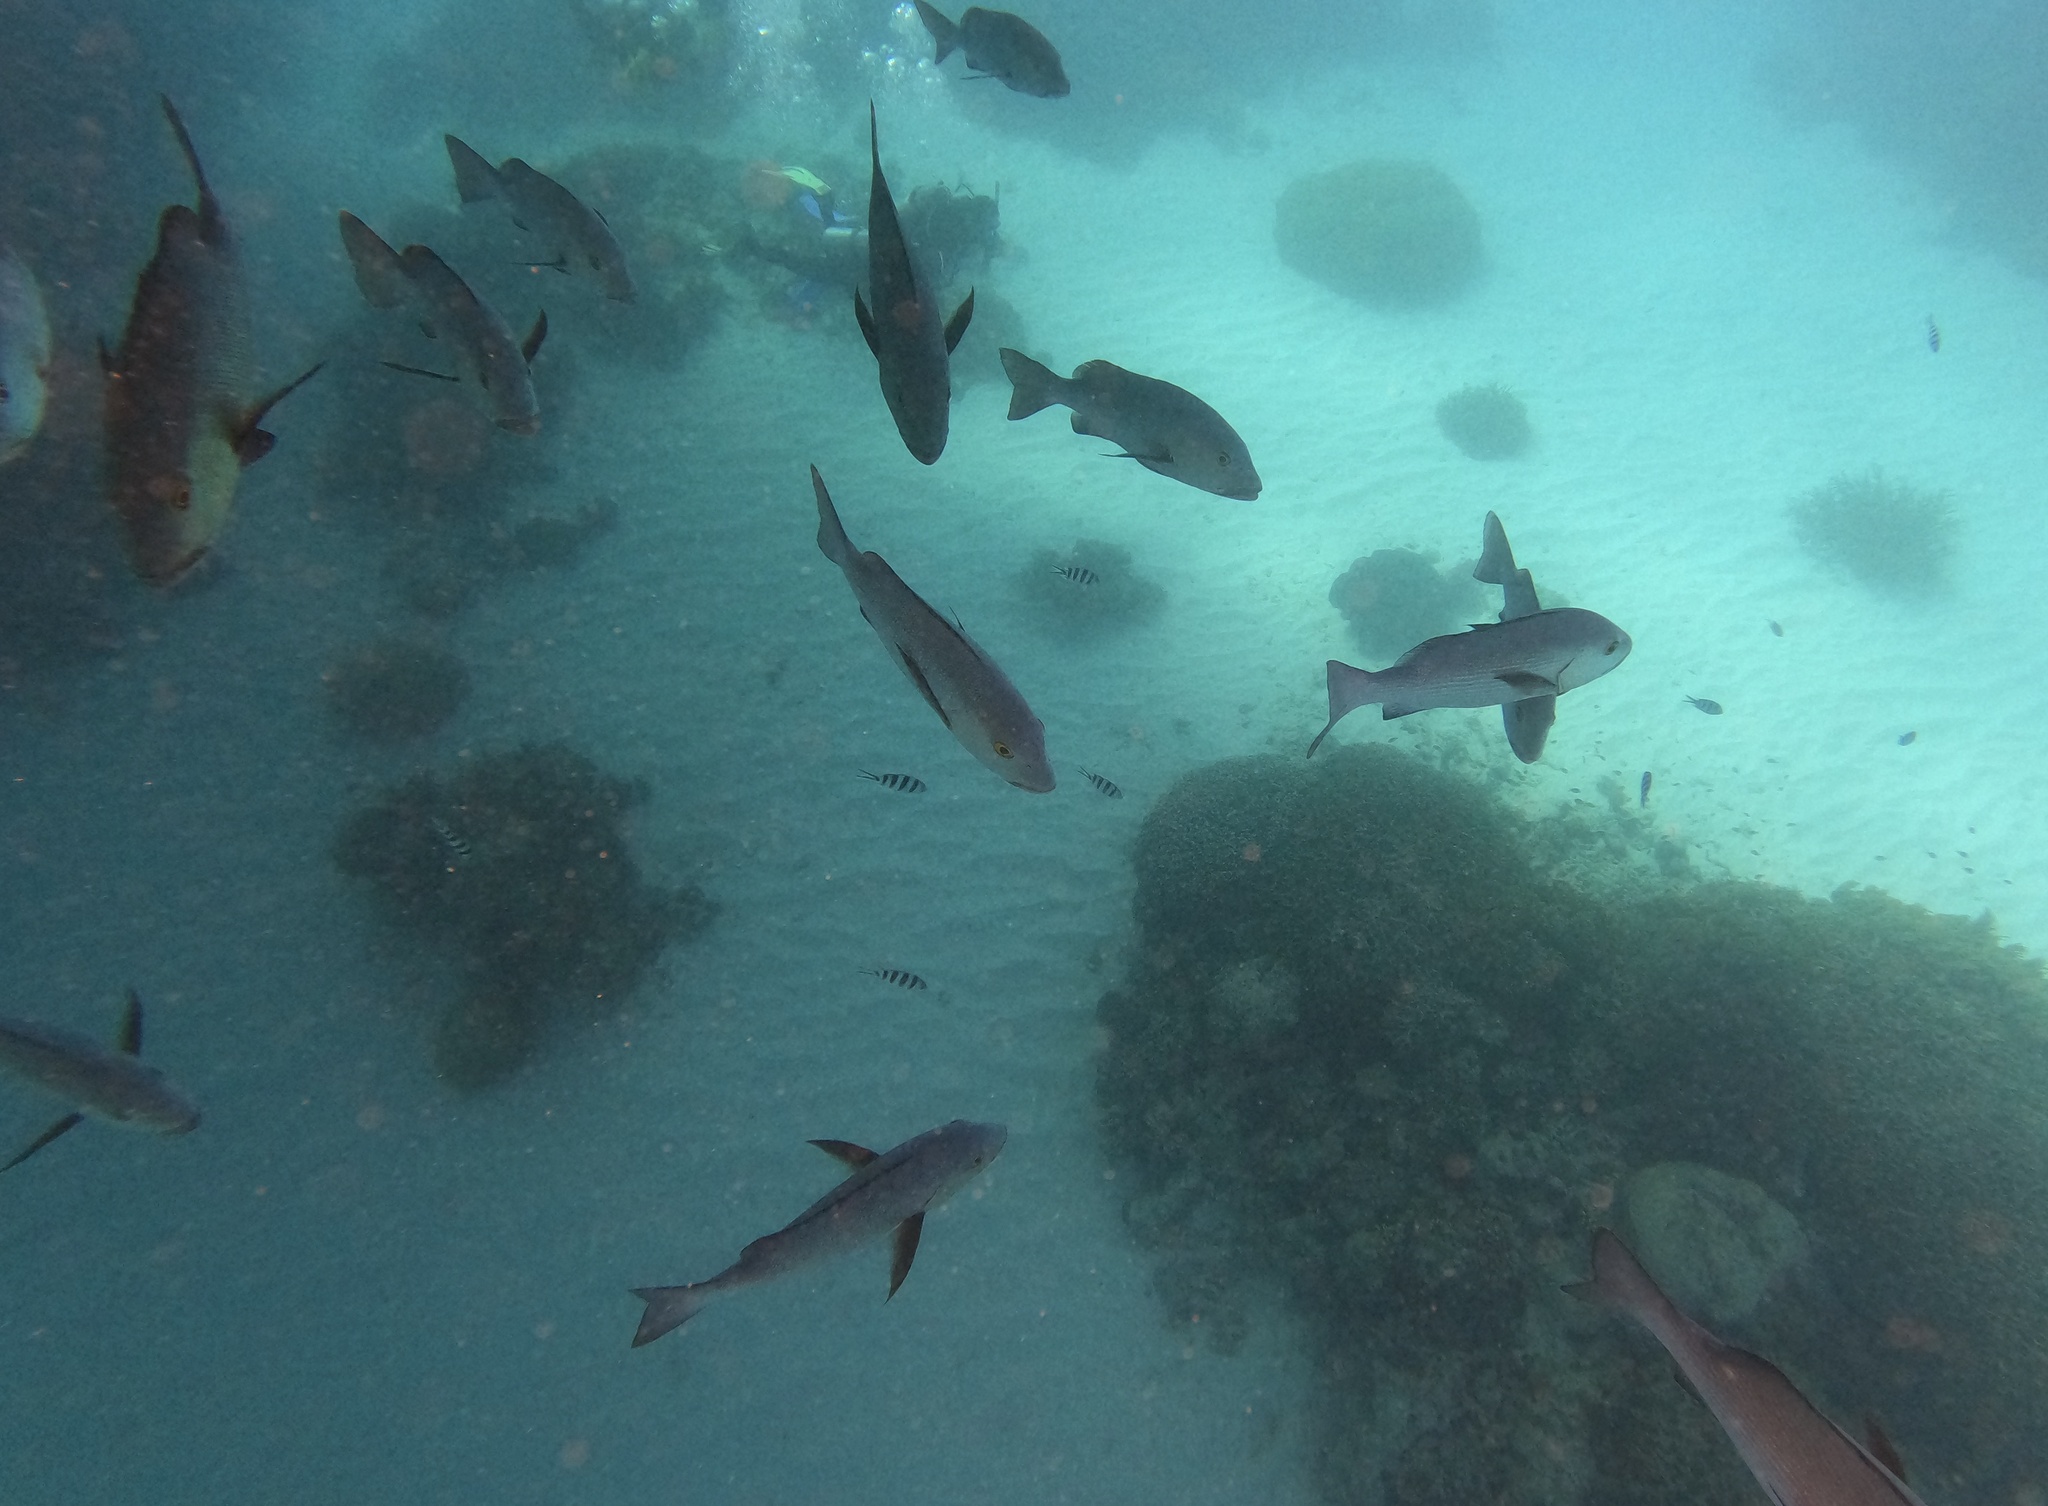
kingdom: Animalia
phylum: Chordata
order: Perciformes
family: Lutjanidae
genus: Lutjanus
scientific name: Lutjanus bohar
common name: Red bass
